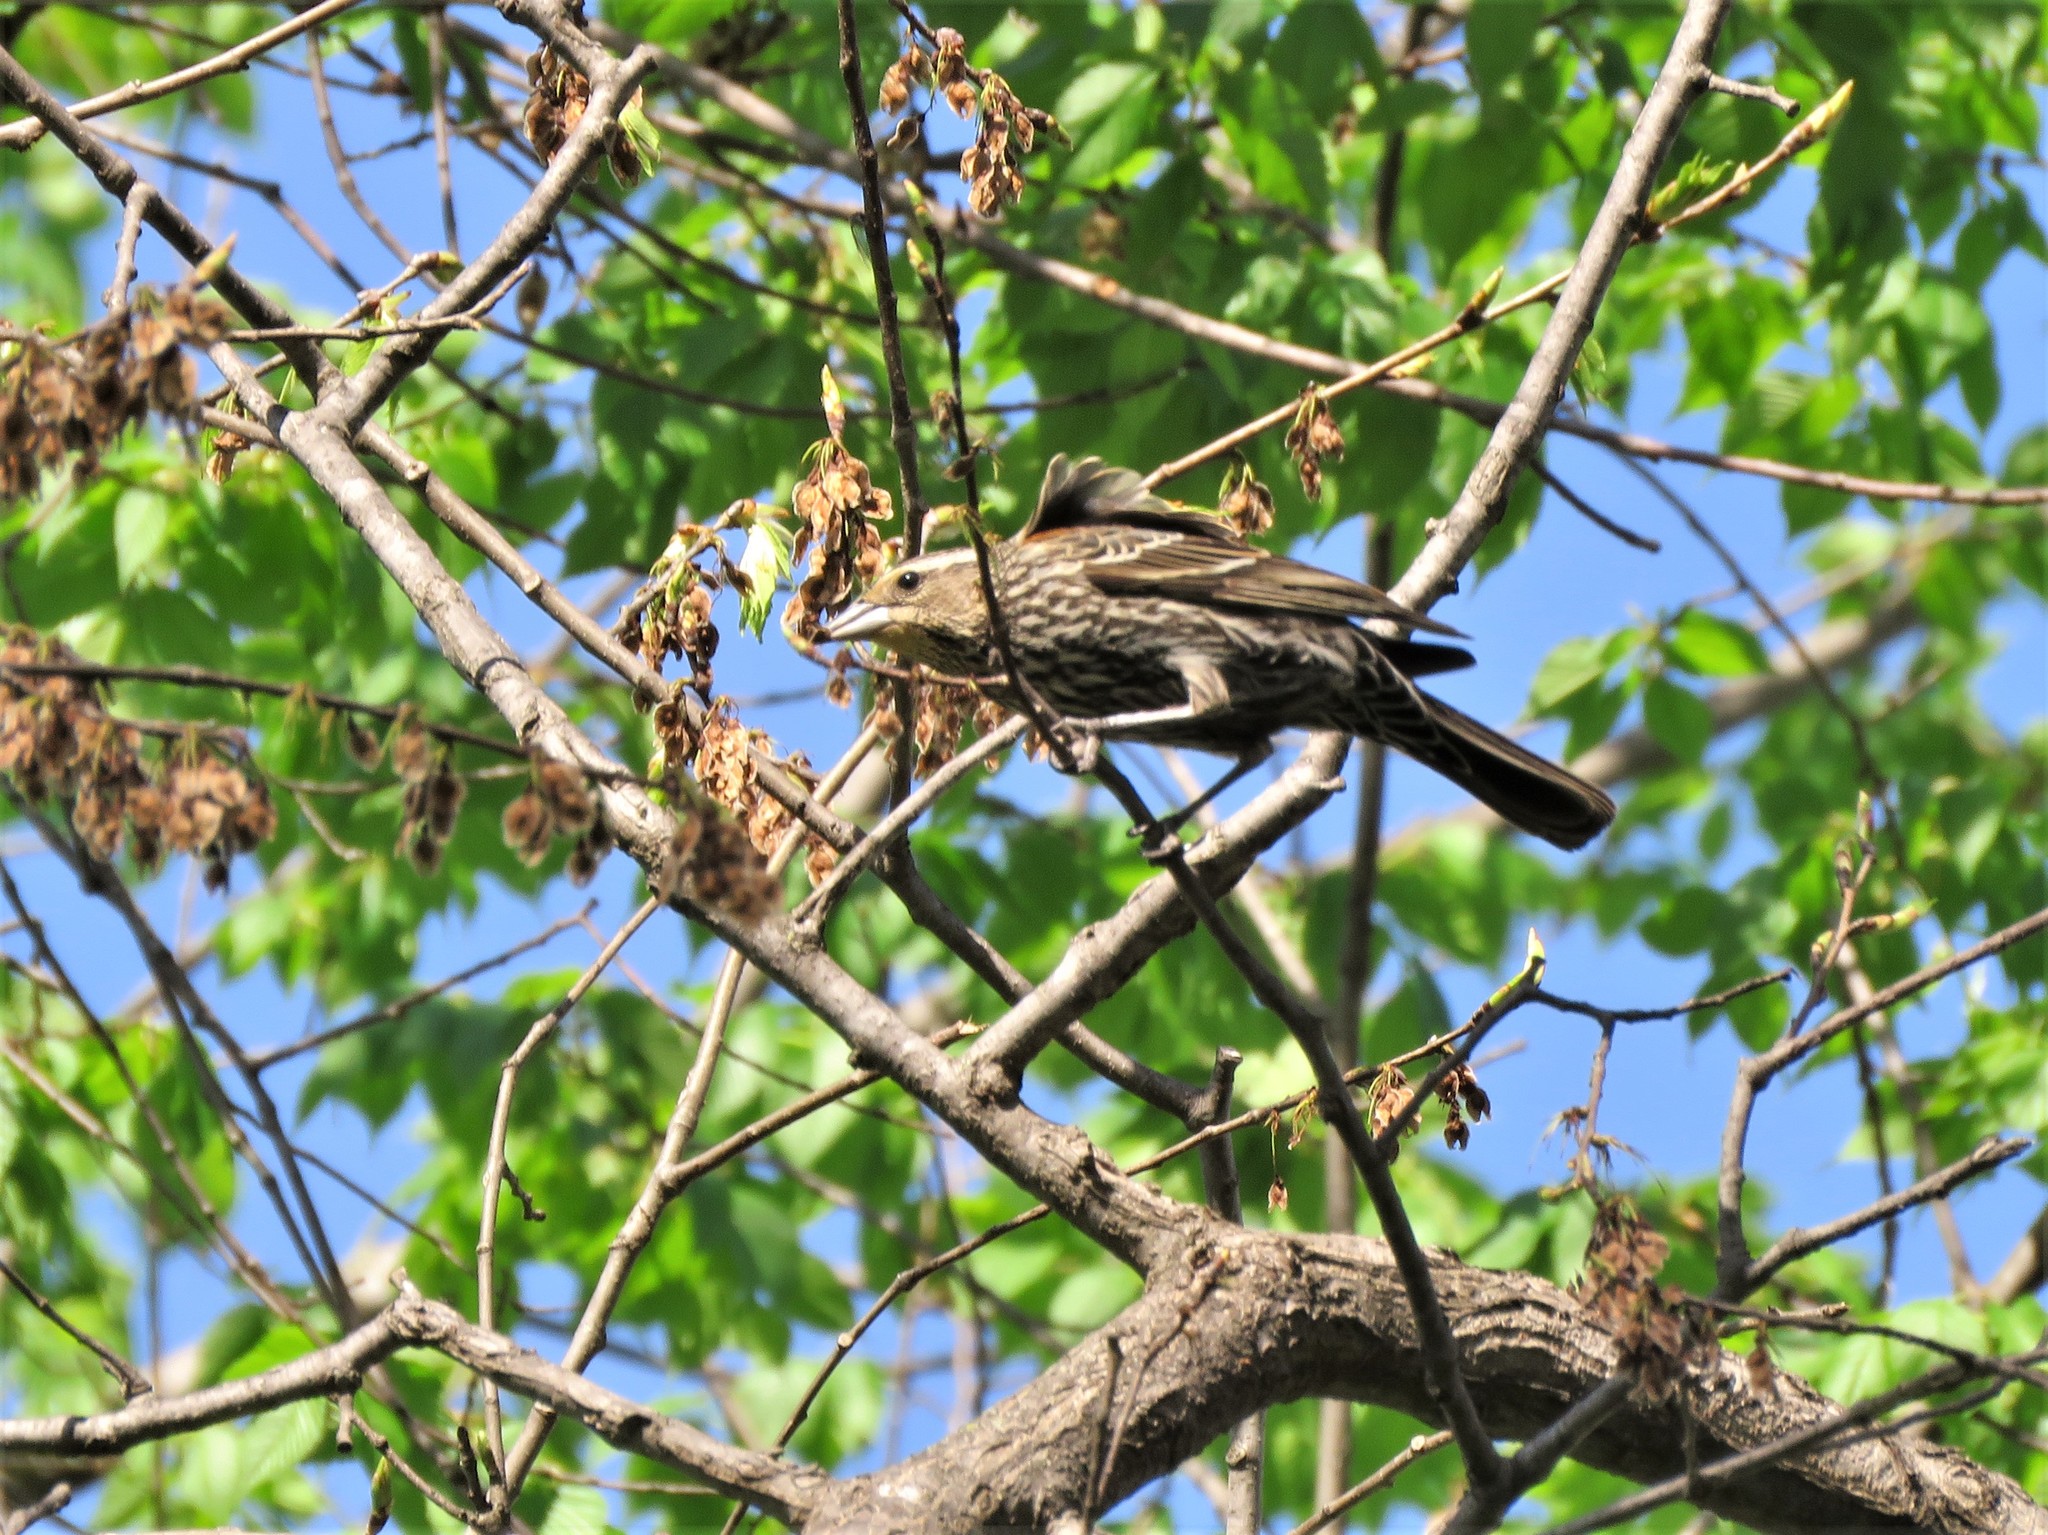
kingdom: Animalia
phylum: Chordata
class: Aves
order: Passeriformes
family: Icteridae
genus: Agelaius
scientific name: Agelaius phoeniceus
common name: Red-winged blackbird
